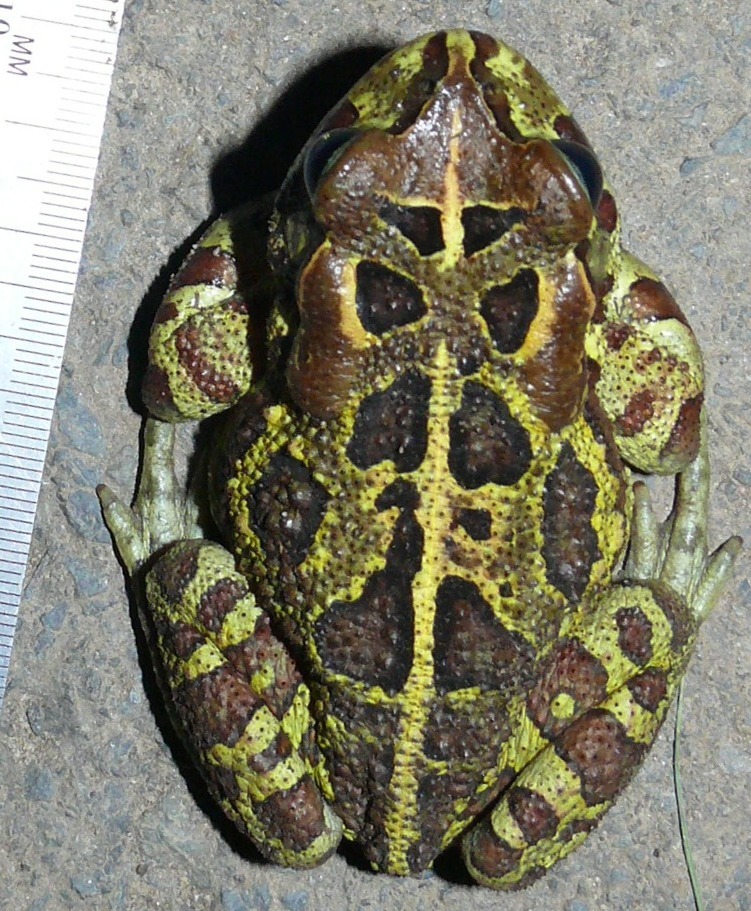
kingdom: Animalia
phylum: Chordata
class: Amphibia
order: Anura
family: Bufonidae
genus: Sclerophrys
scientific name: Sclerophrys pantherina
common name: Panther toad
